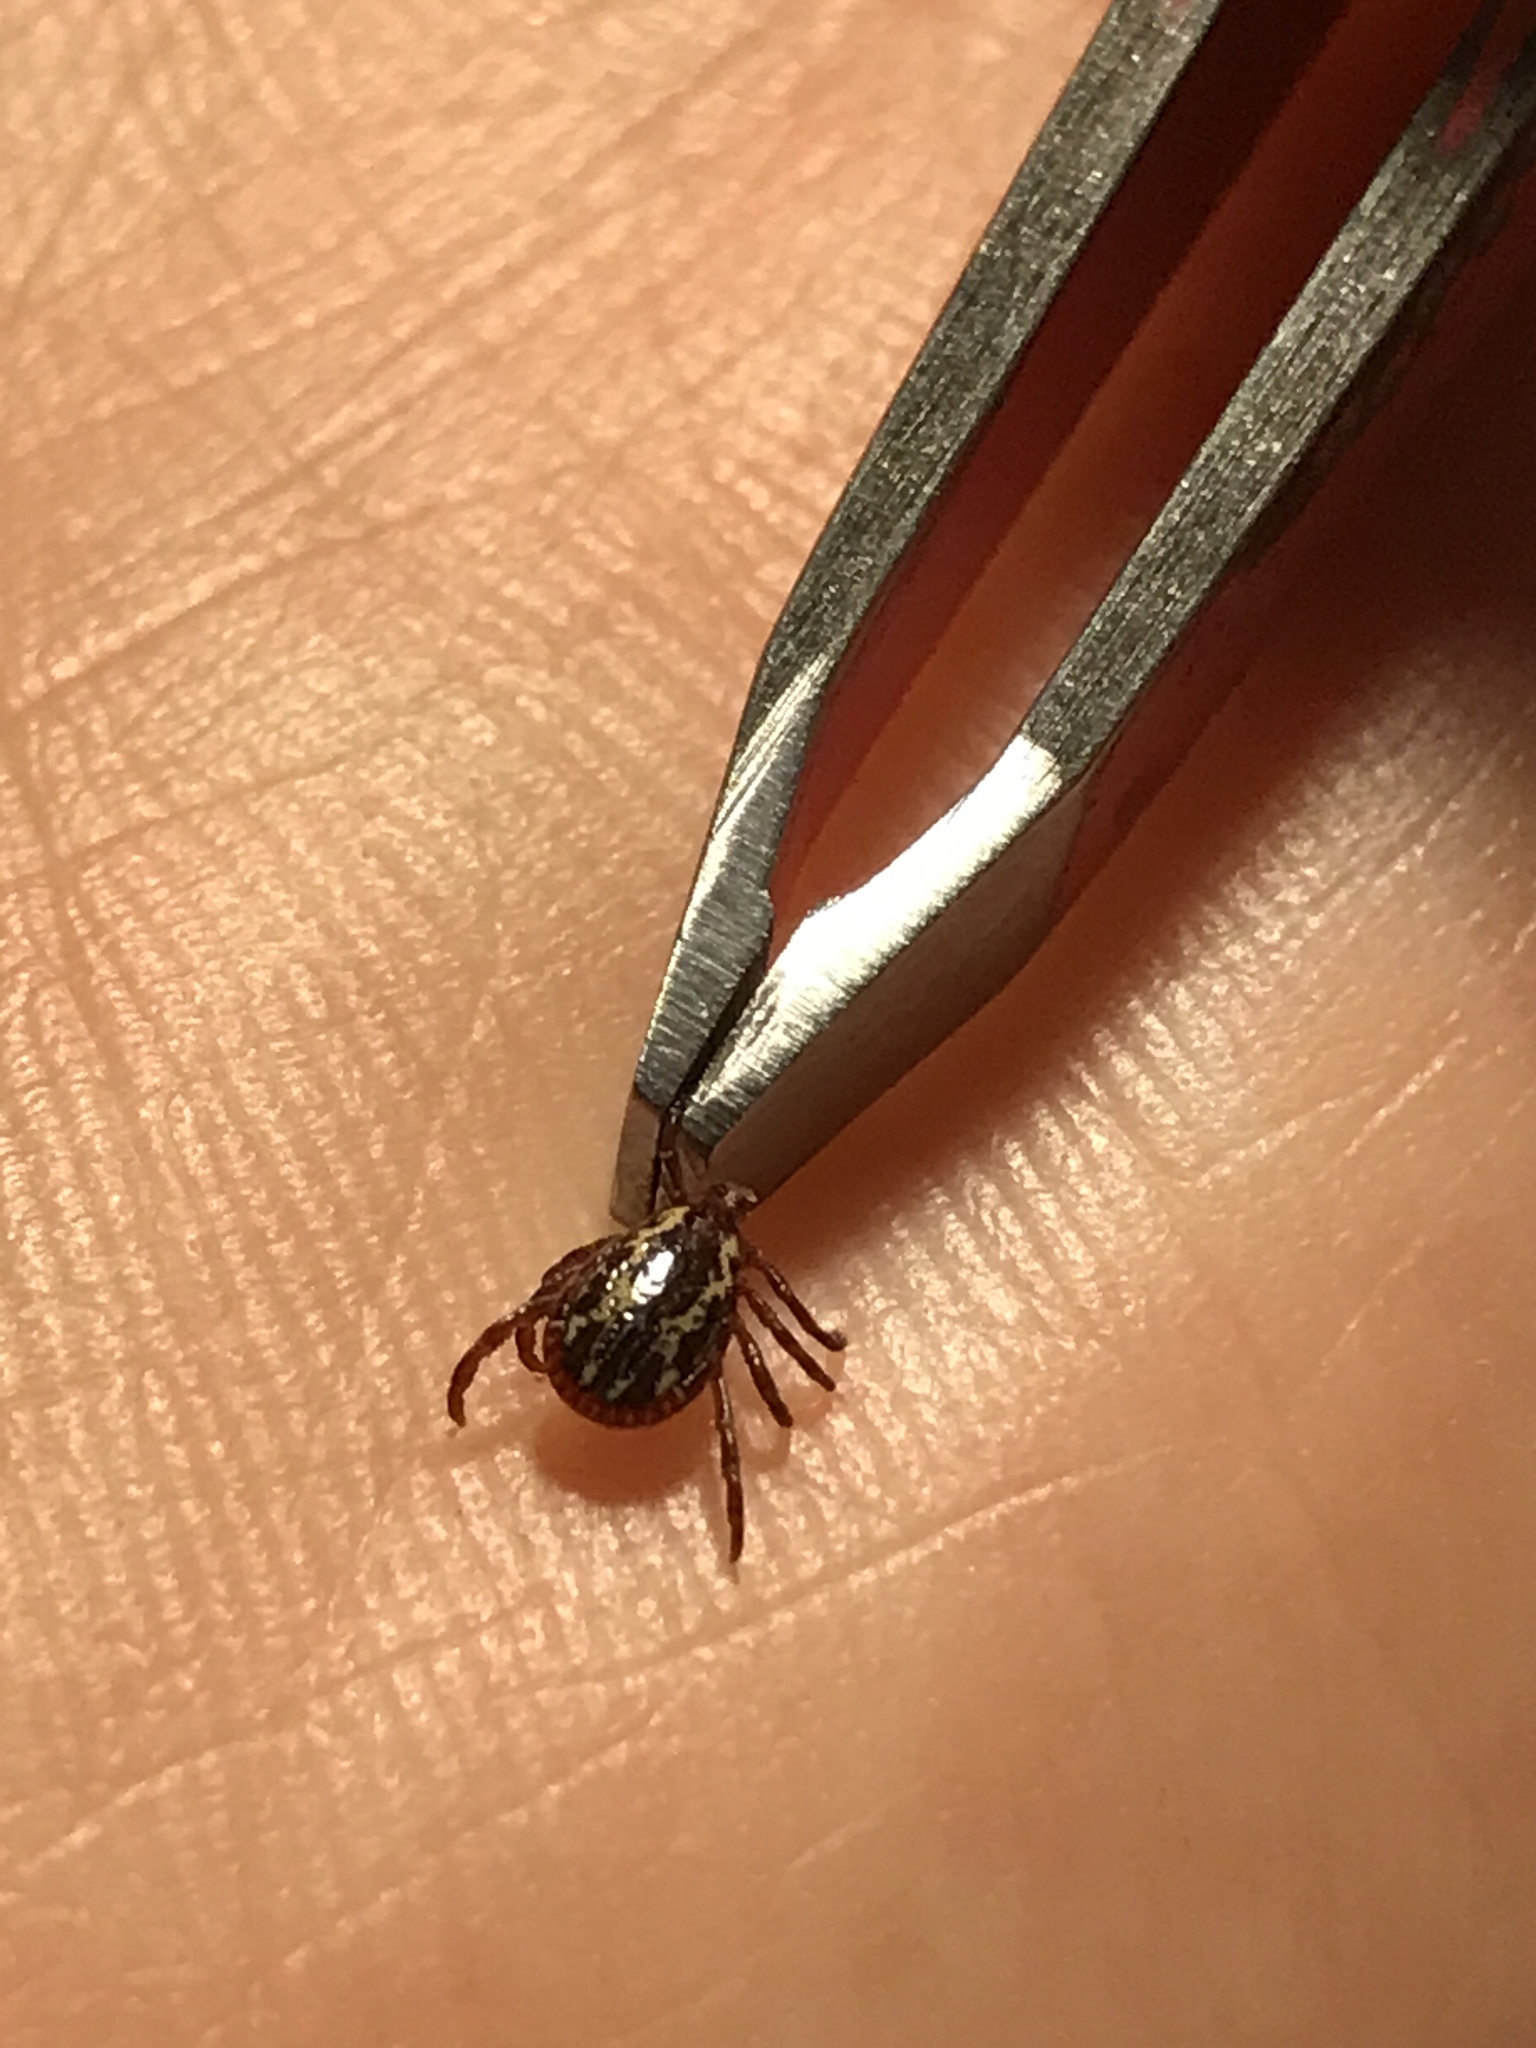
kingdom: Animalia
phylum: Arthropoda
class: Arachnida
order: Ixodida
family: Ixodidae
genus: Dermacentor
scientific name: Dermacentor variabilis
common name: American dog tick
